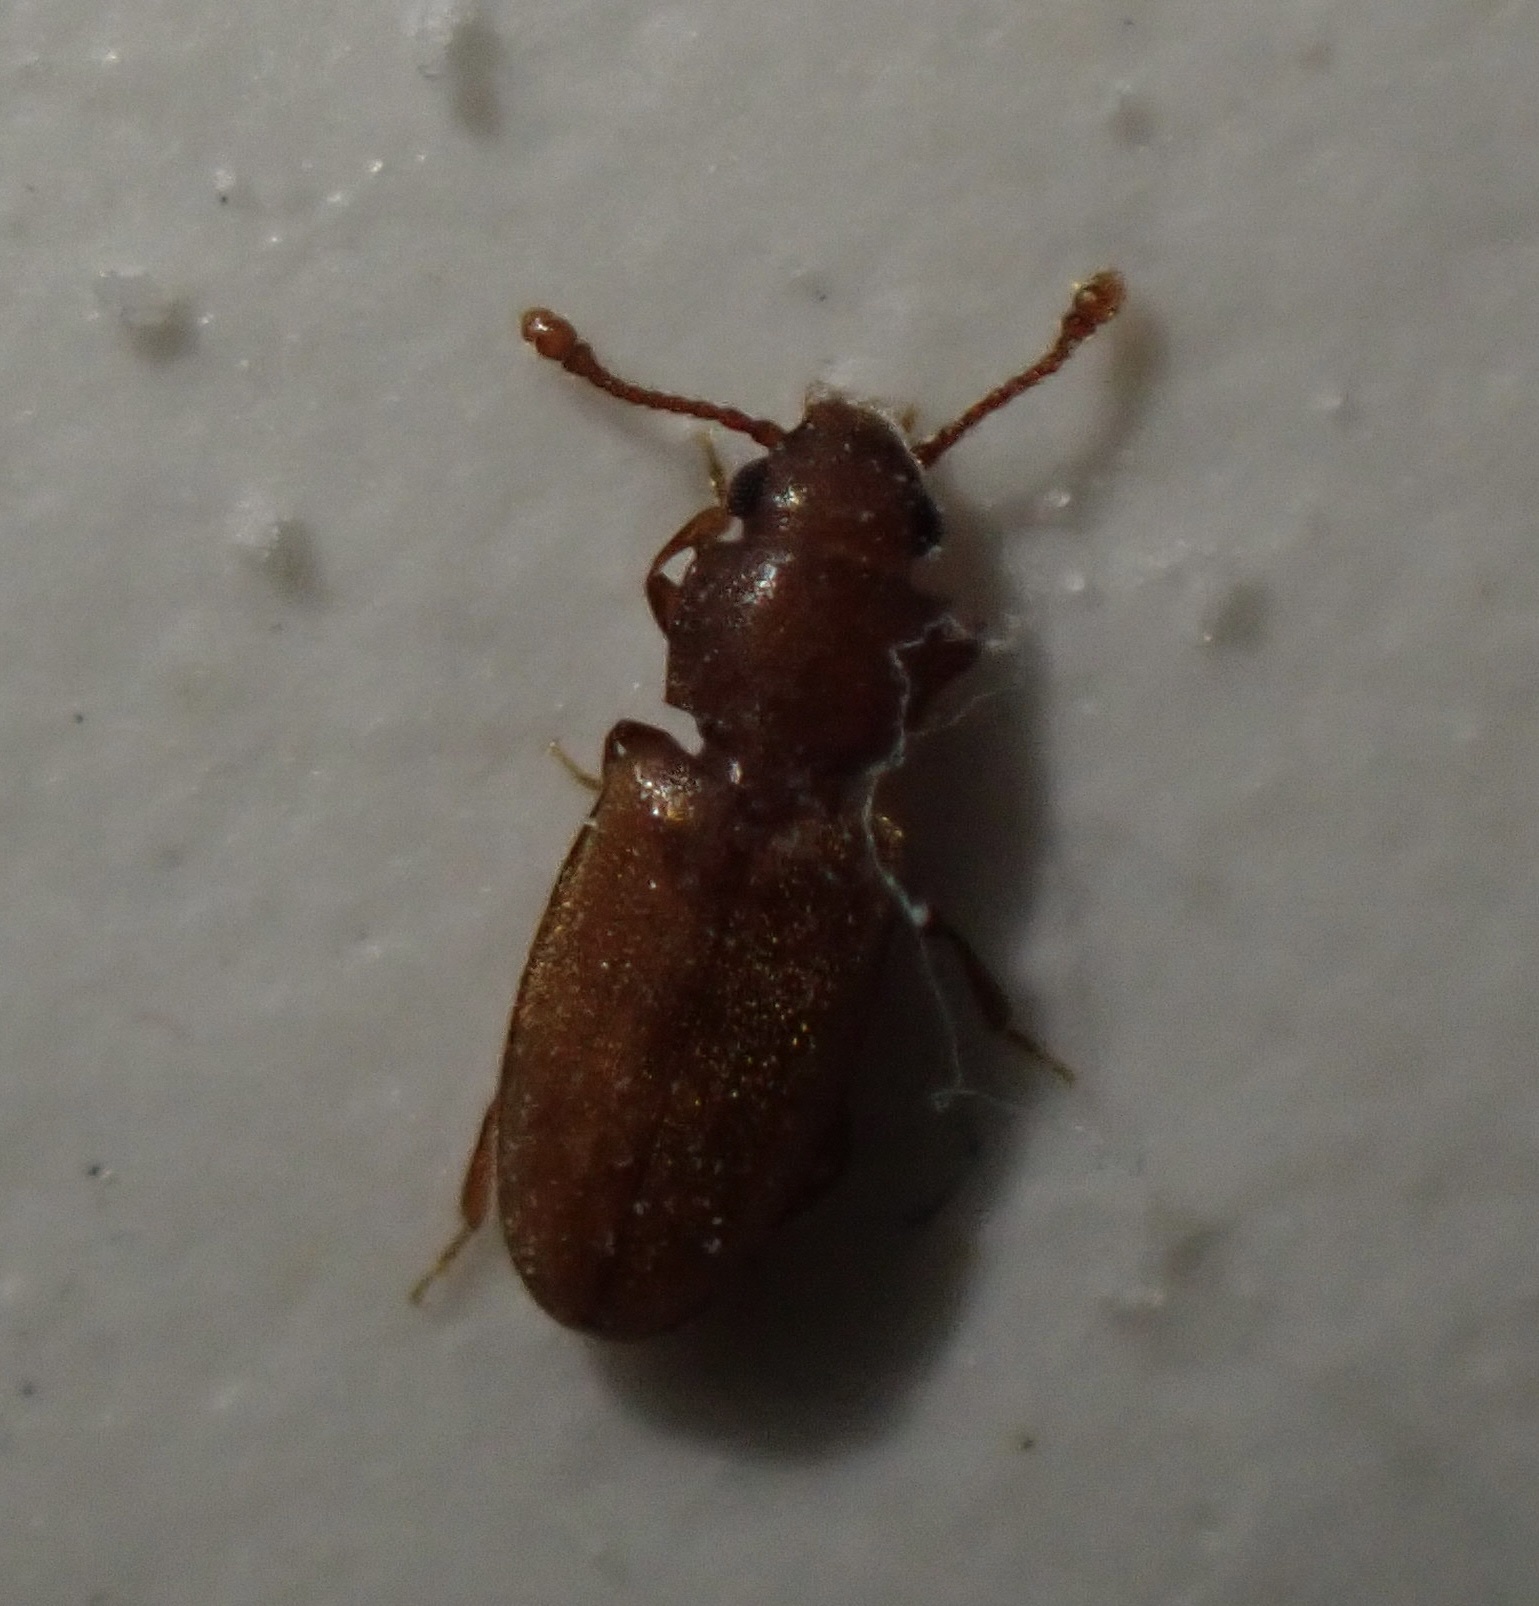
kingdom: Animalia
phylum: Arthropoda
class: Insecta
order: Coleoptera
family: Silvanidae
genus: Ahasverus
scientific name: Ahasverus advena
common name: Foreign grain beetle
